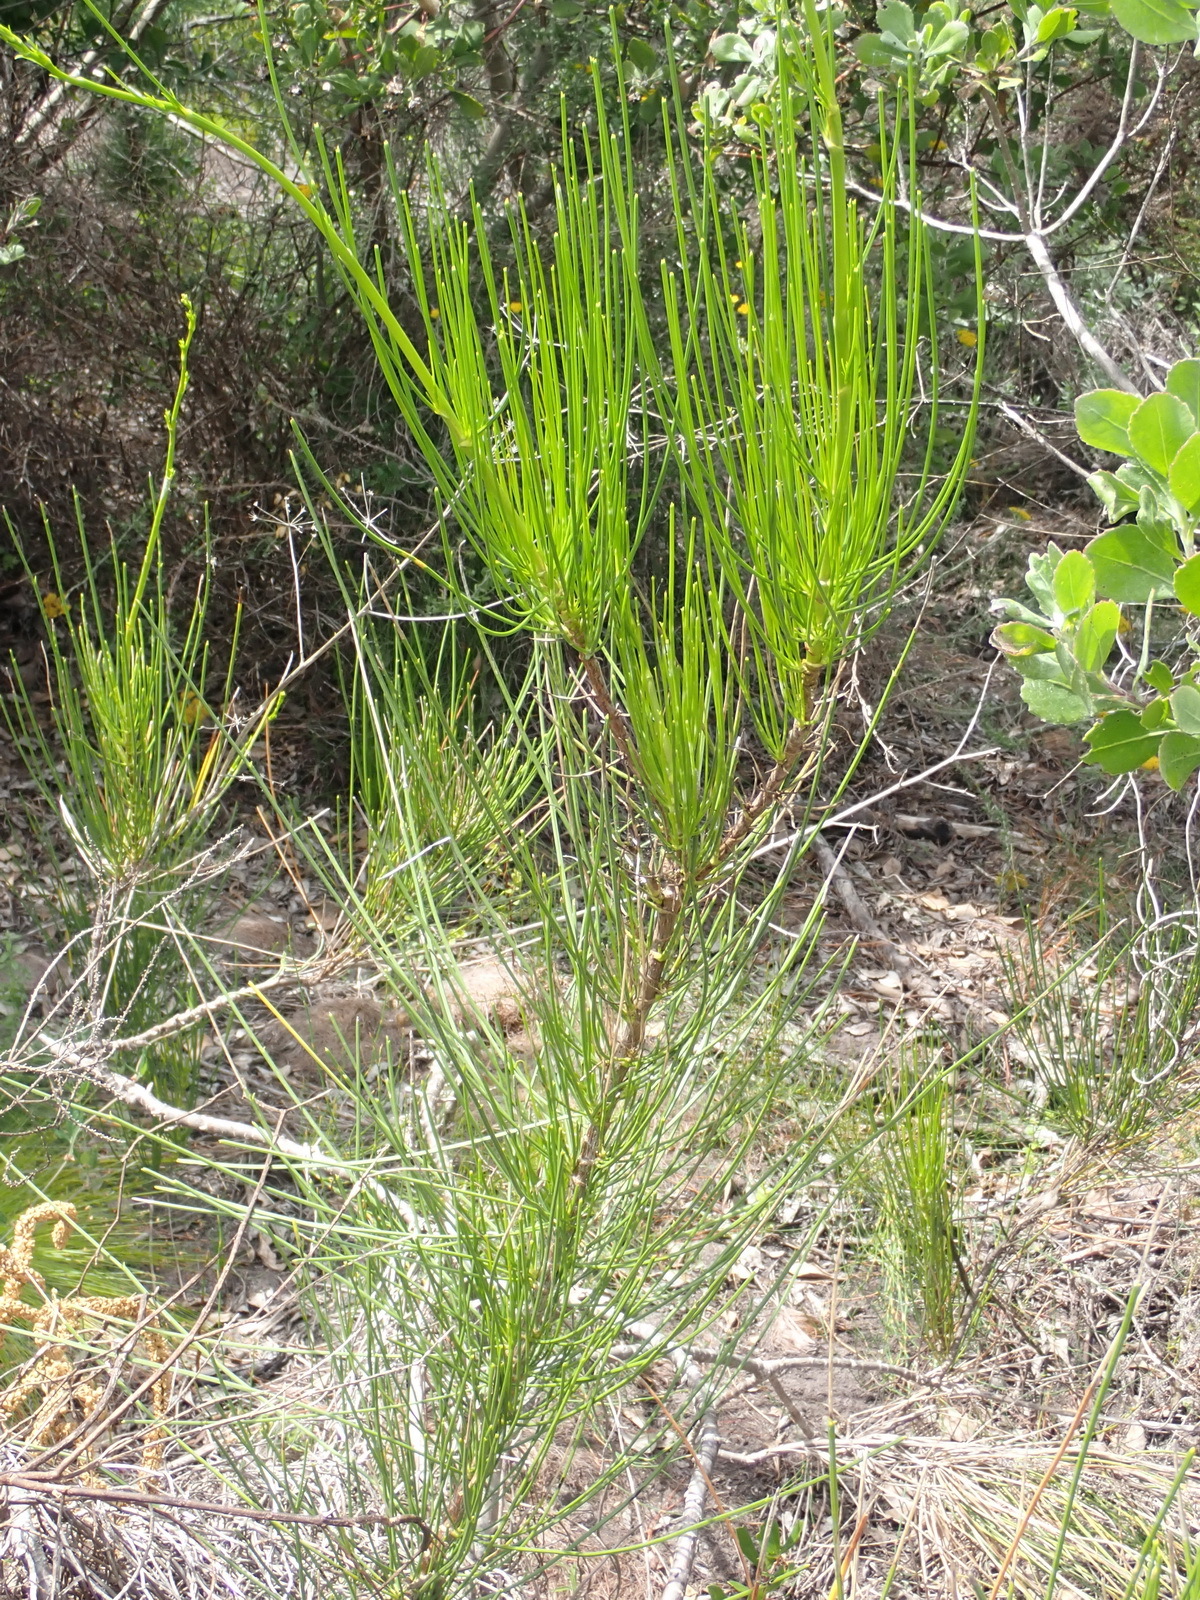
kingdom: Plantae
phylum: Tracheophyta
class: Magnoliopsida
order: Sapindales
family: Anacardiaceae
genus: Searsia
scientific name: Searsia tomentosa
